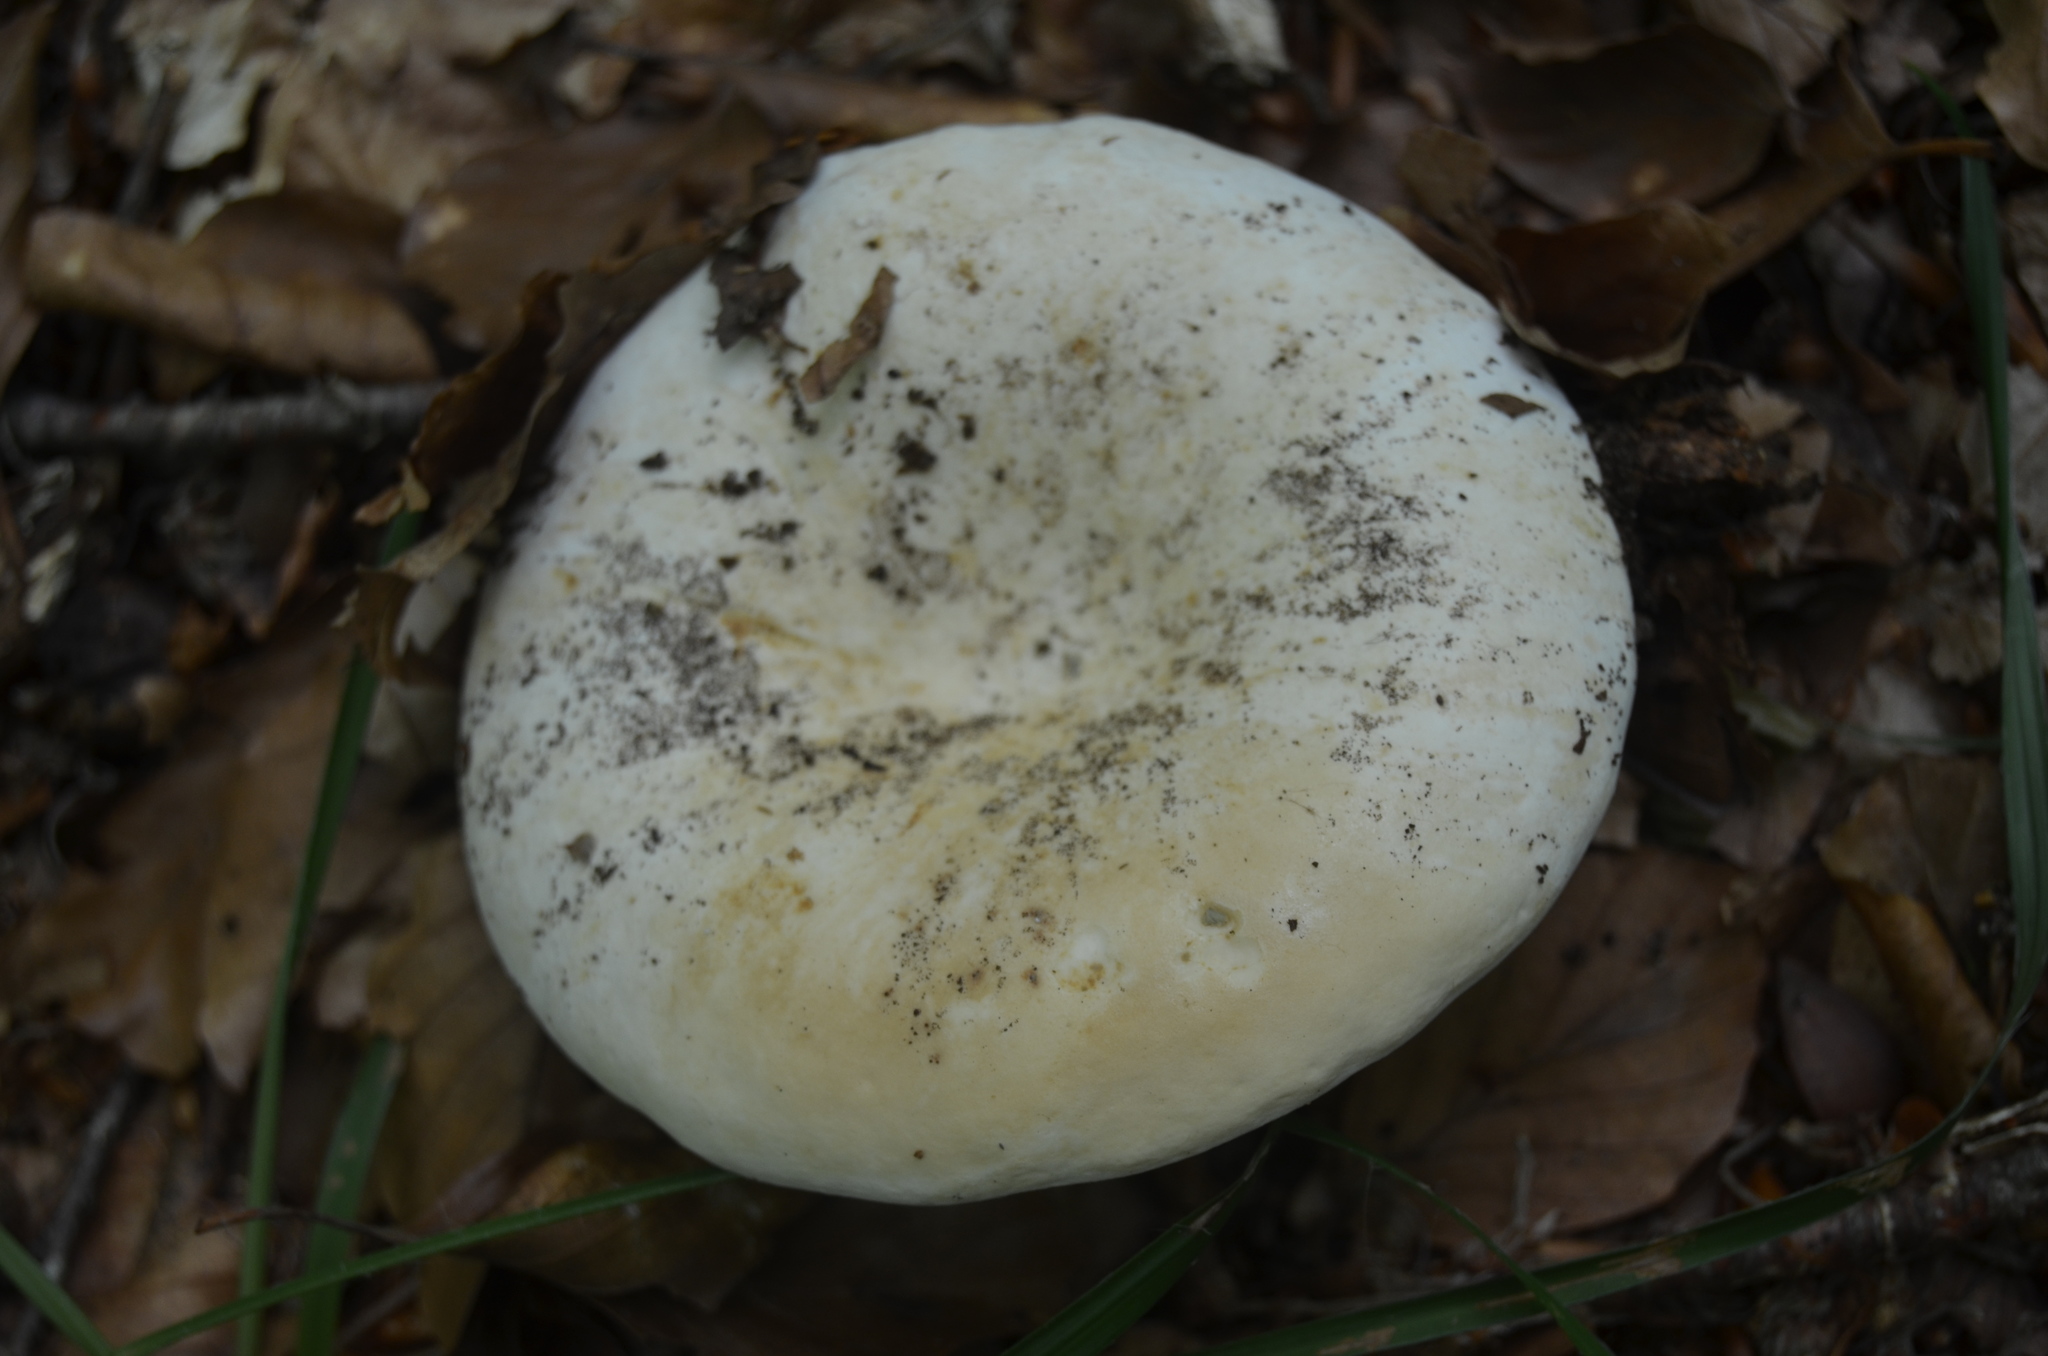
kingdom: Fungi
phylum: Basidiomycota
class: Agaricomycetes
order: Russulales
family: Russulaceae
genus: Lactifluus
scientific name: Lactifluus piperatus
